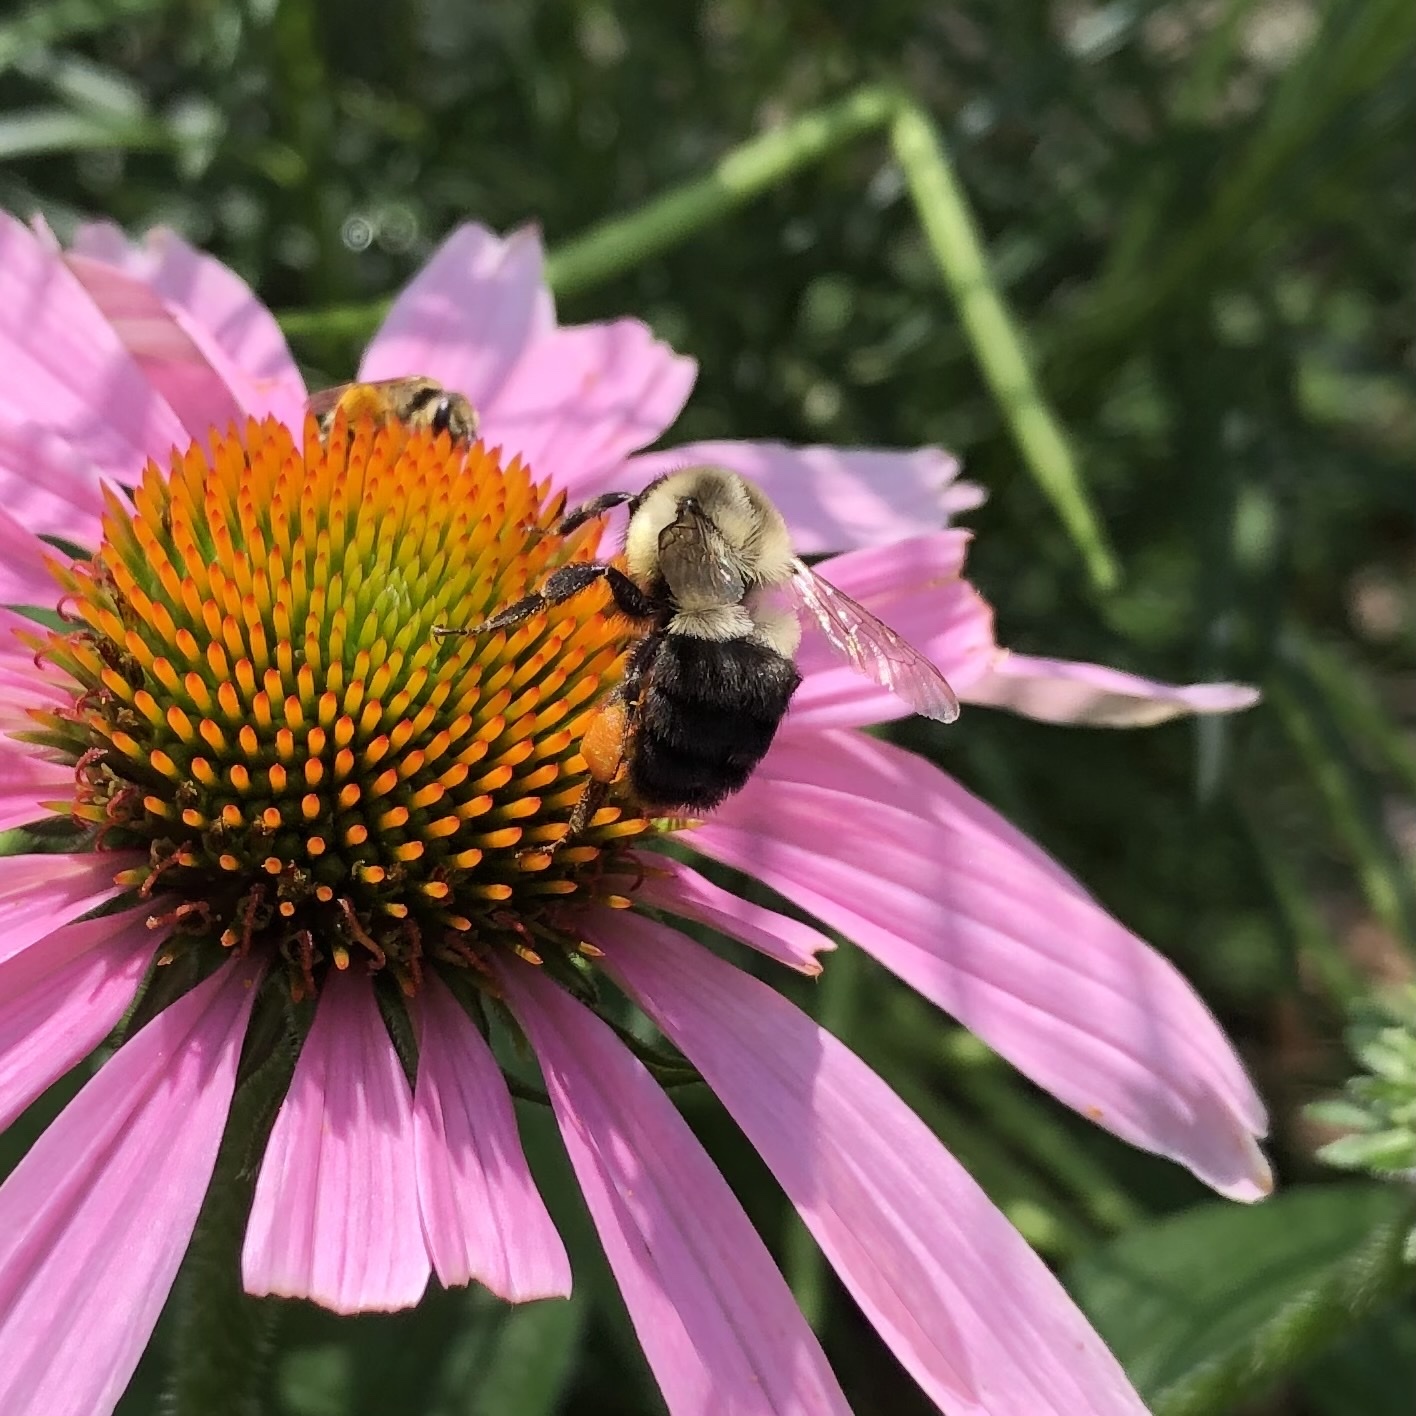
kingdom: Animalia
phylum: Arthropoda
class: Insecta
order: Hymenoptera
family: Apidae
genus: Bombus
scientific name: Bombus impatiens
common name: Common eastern bumble bee
